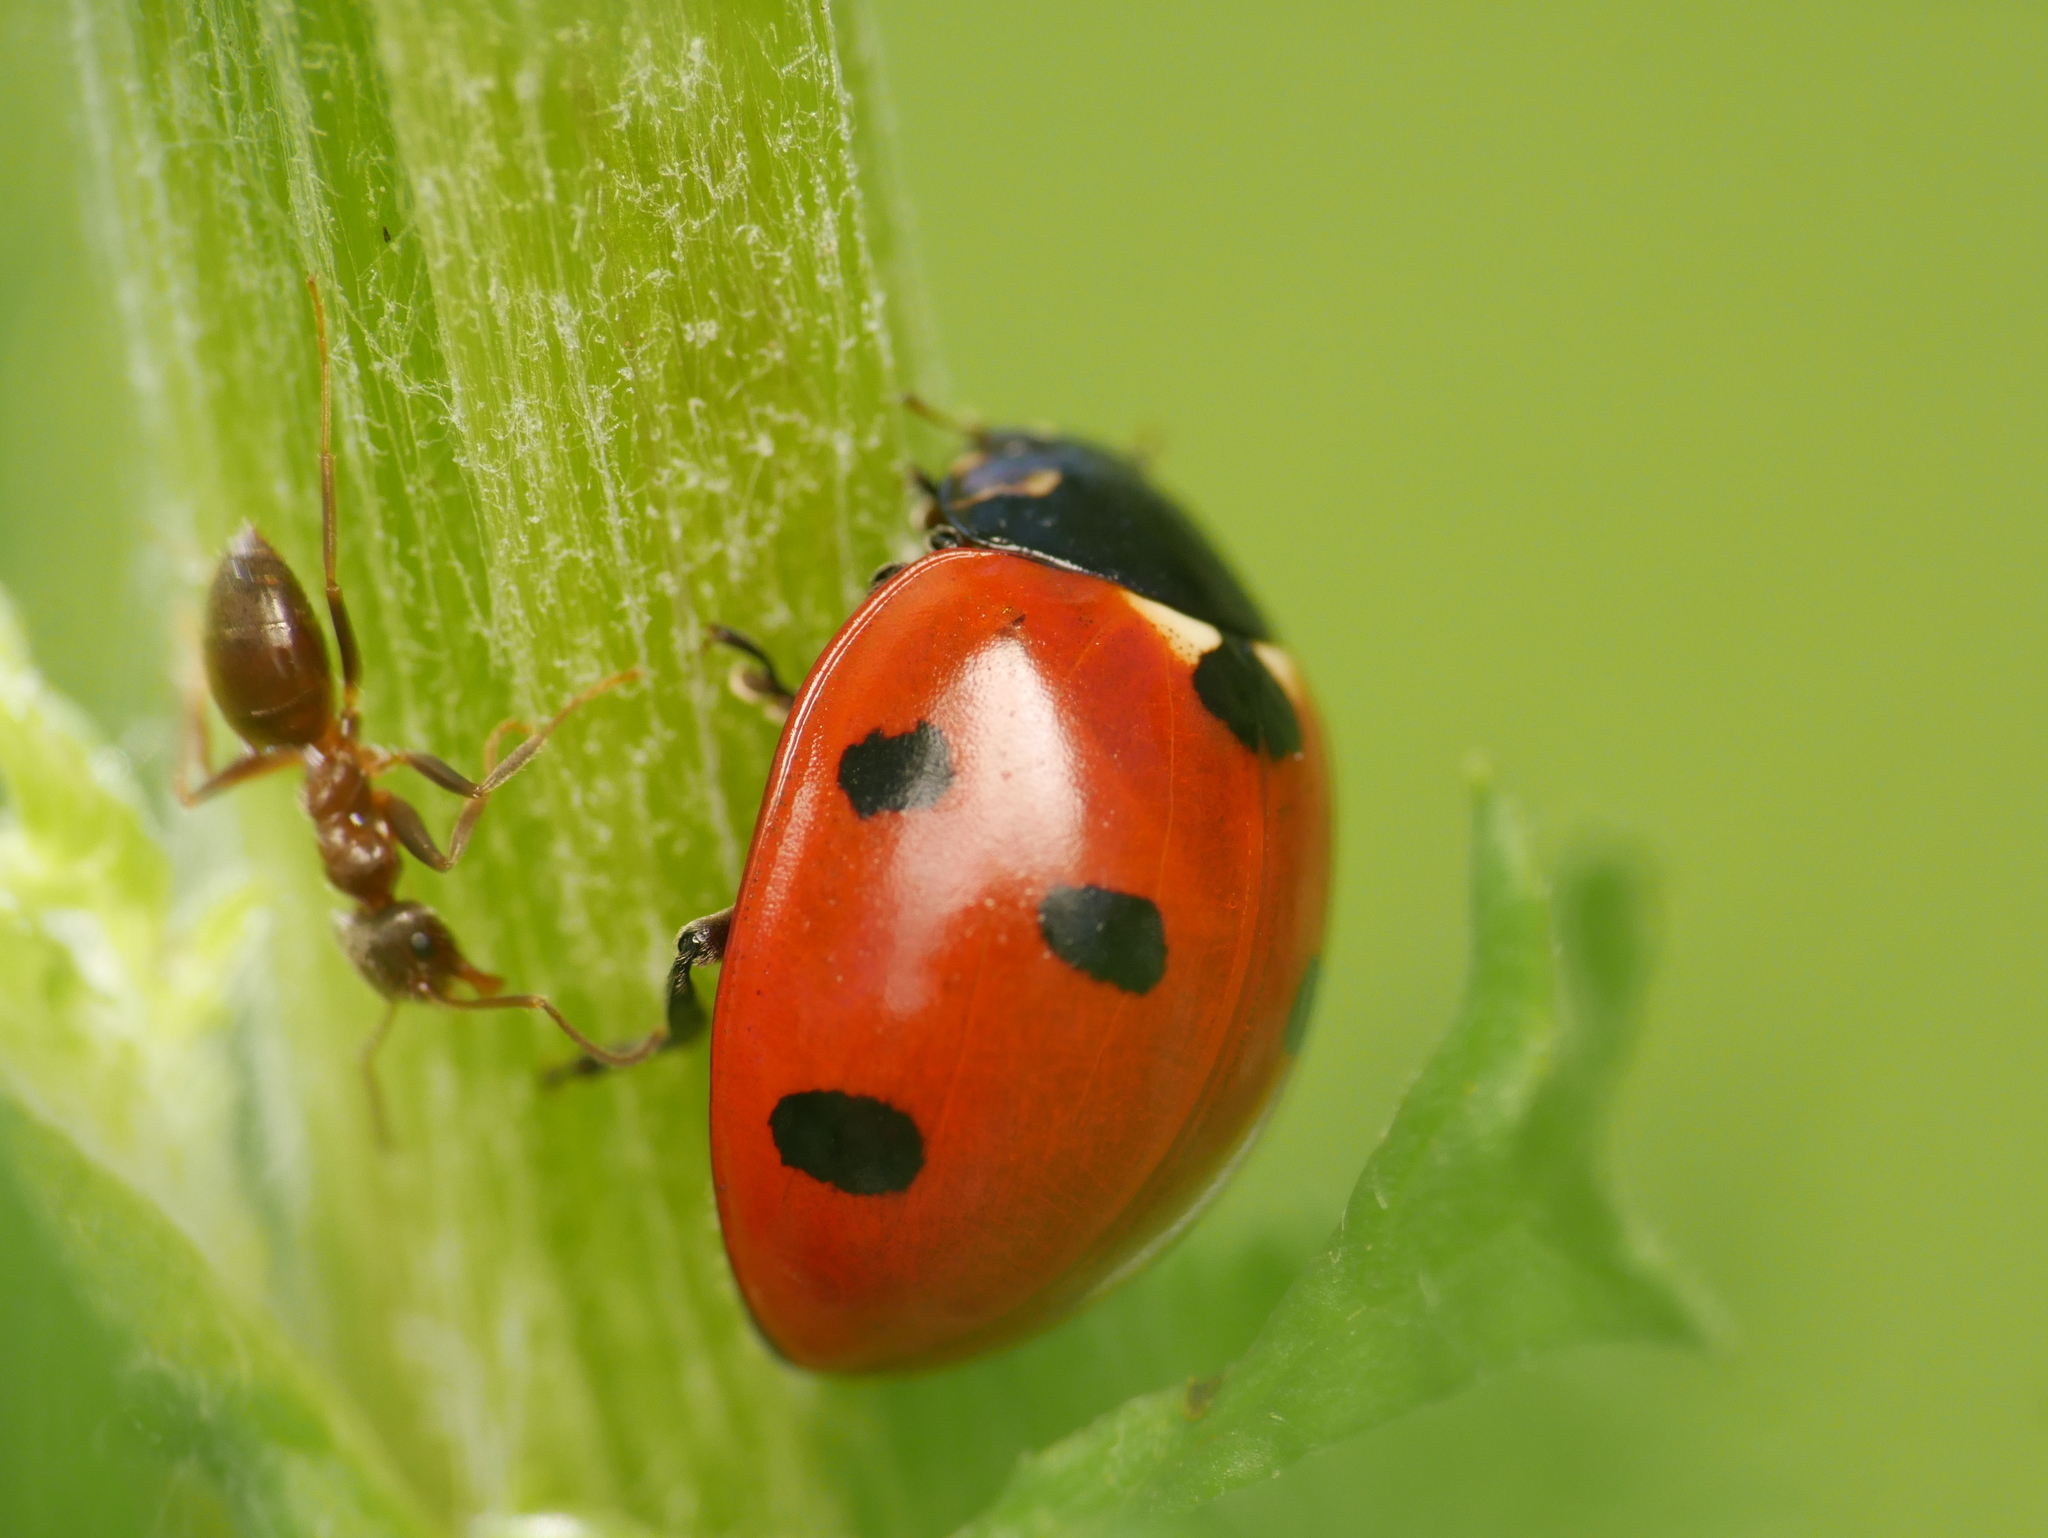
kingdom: Animalia
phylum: Arthropoda
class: Insecta
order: Coleoptera
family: Coccinellidae
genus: Coccinella
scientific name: Coccinella septempunctata
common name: Sevenspotted lady beetle
